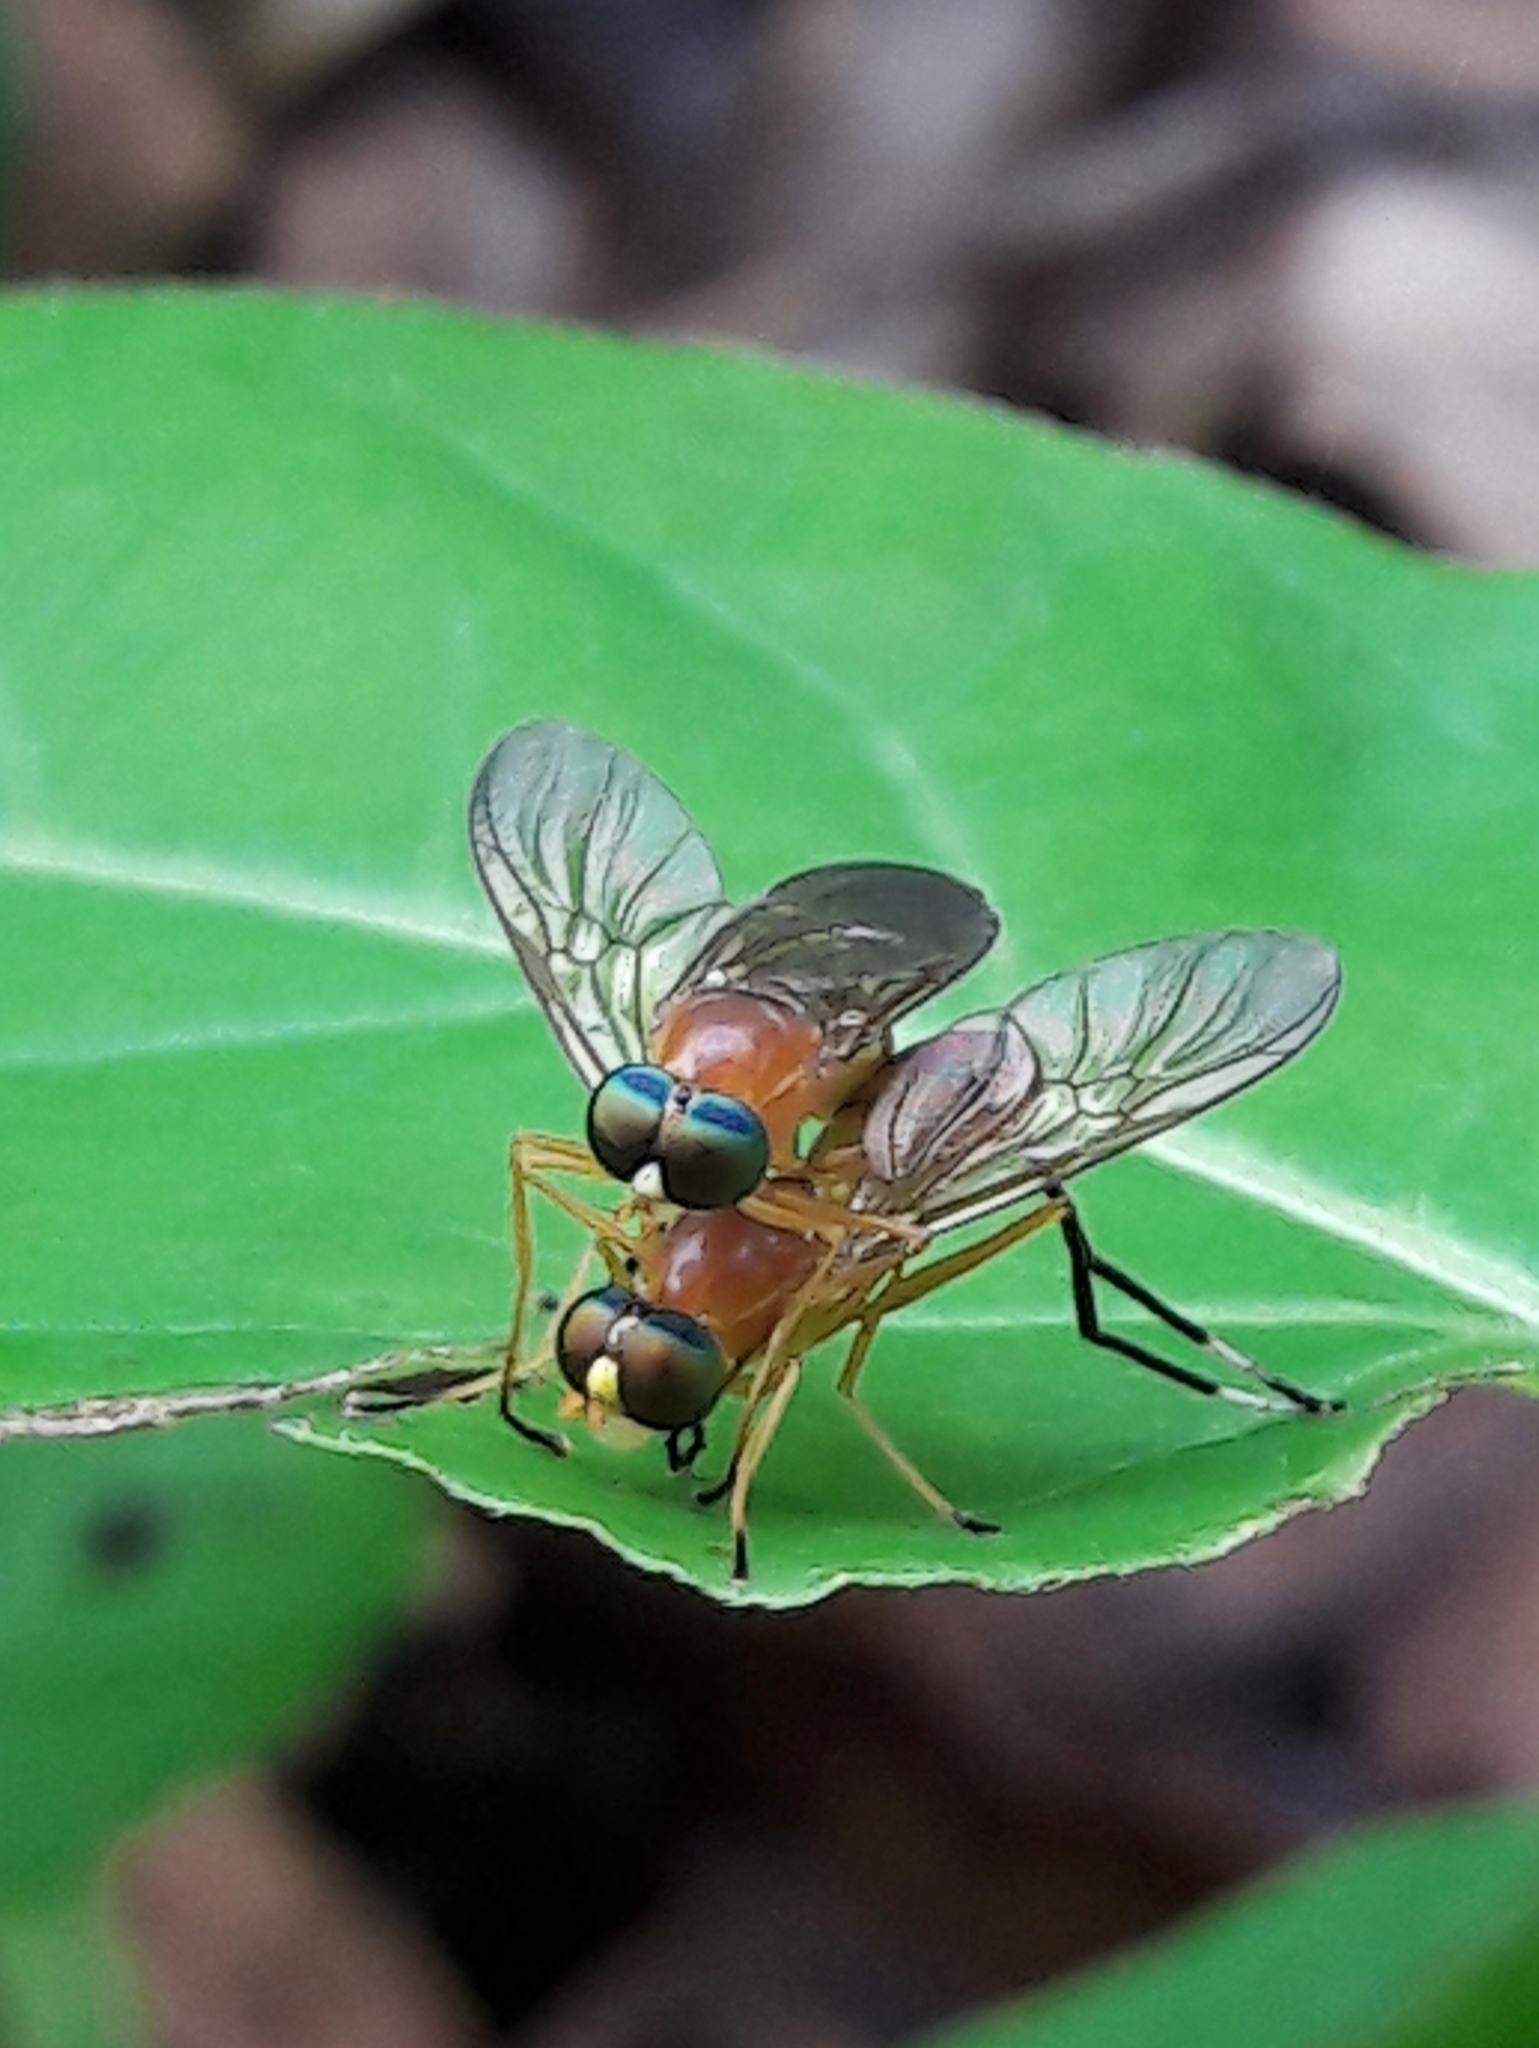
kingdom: Animalia
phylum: Arthropoda
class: Insecta
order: Diptera
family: Stratiomyidae
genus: Ptecticus
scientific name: Ptecticus testaceus
